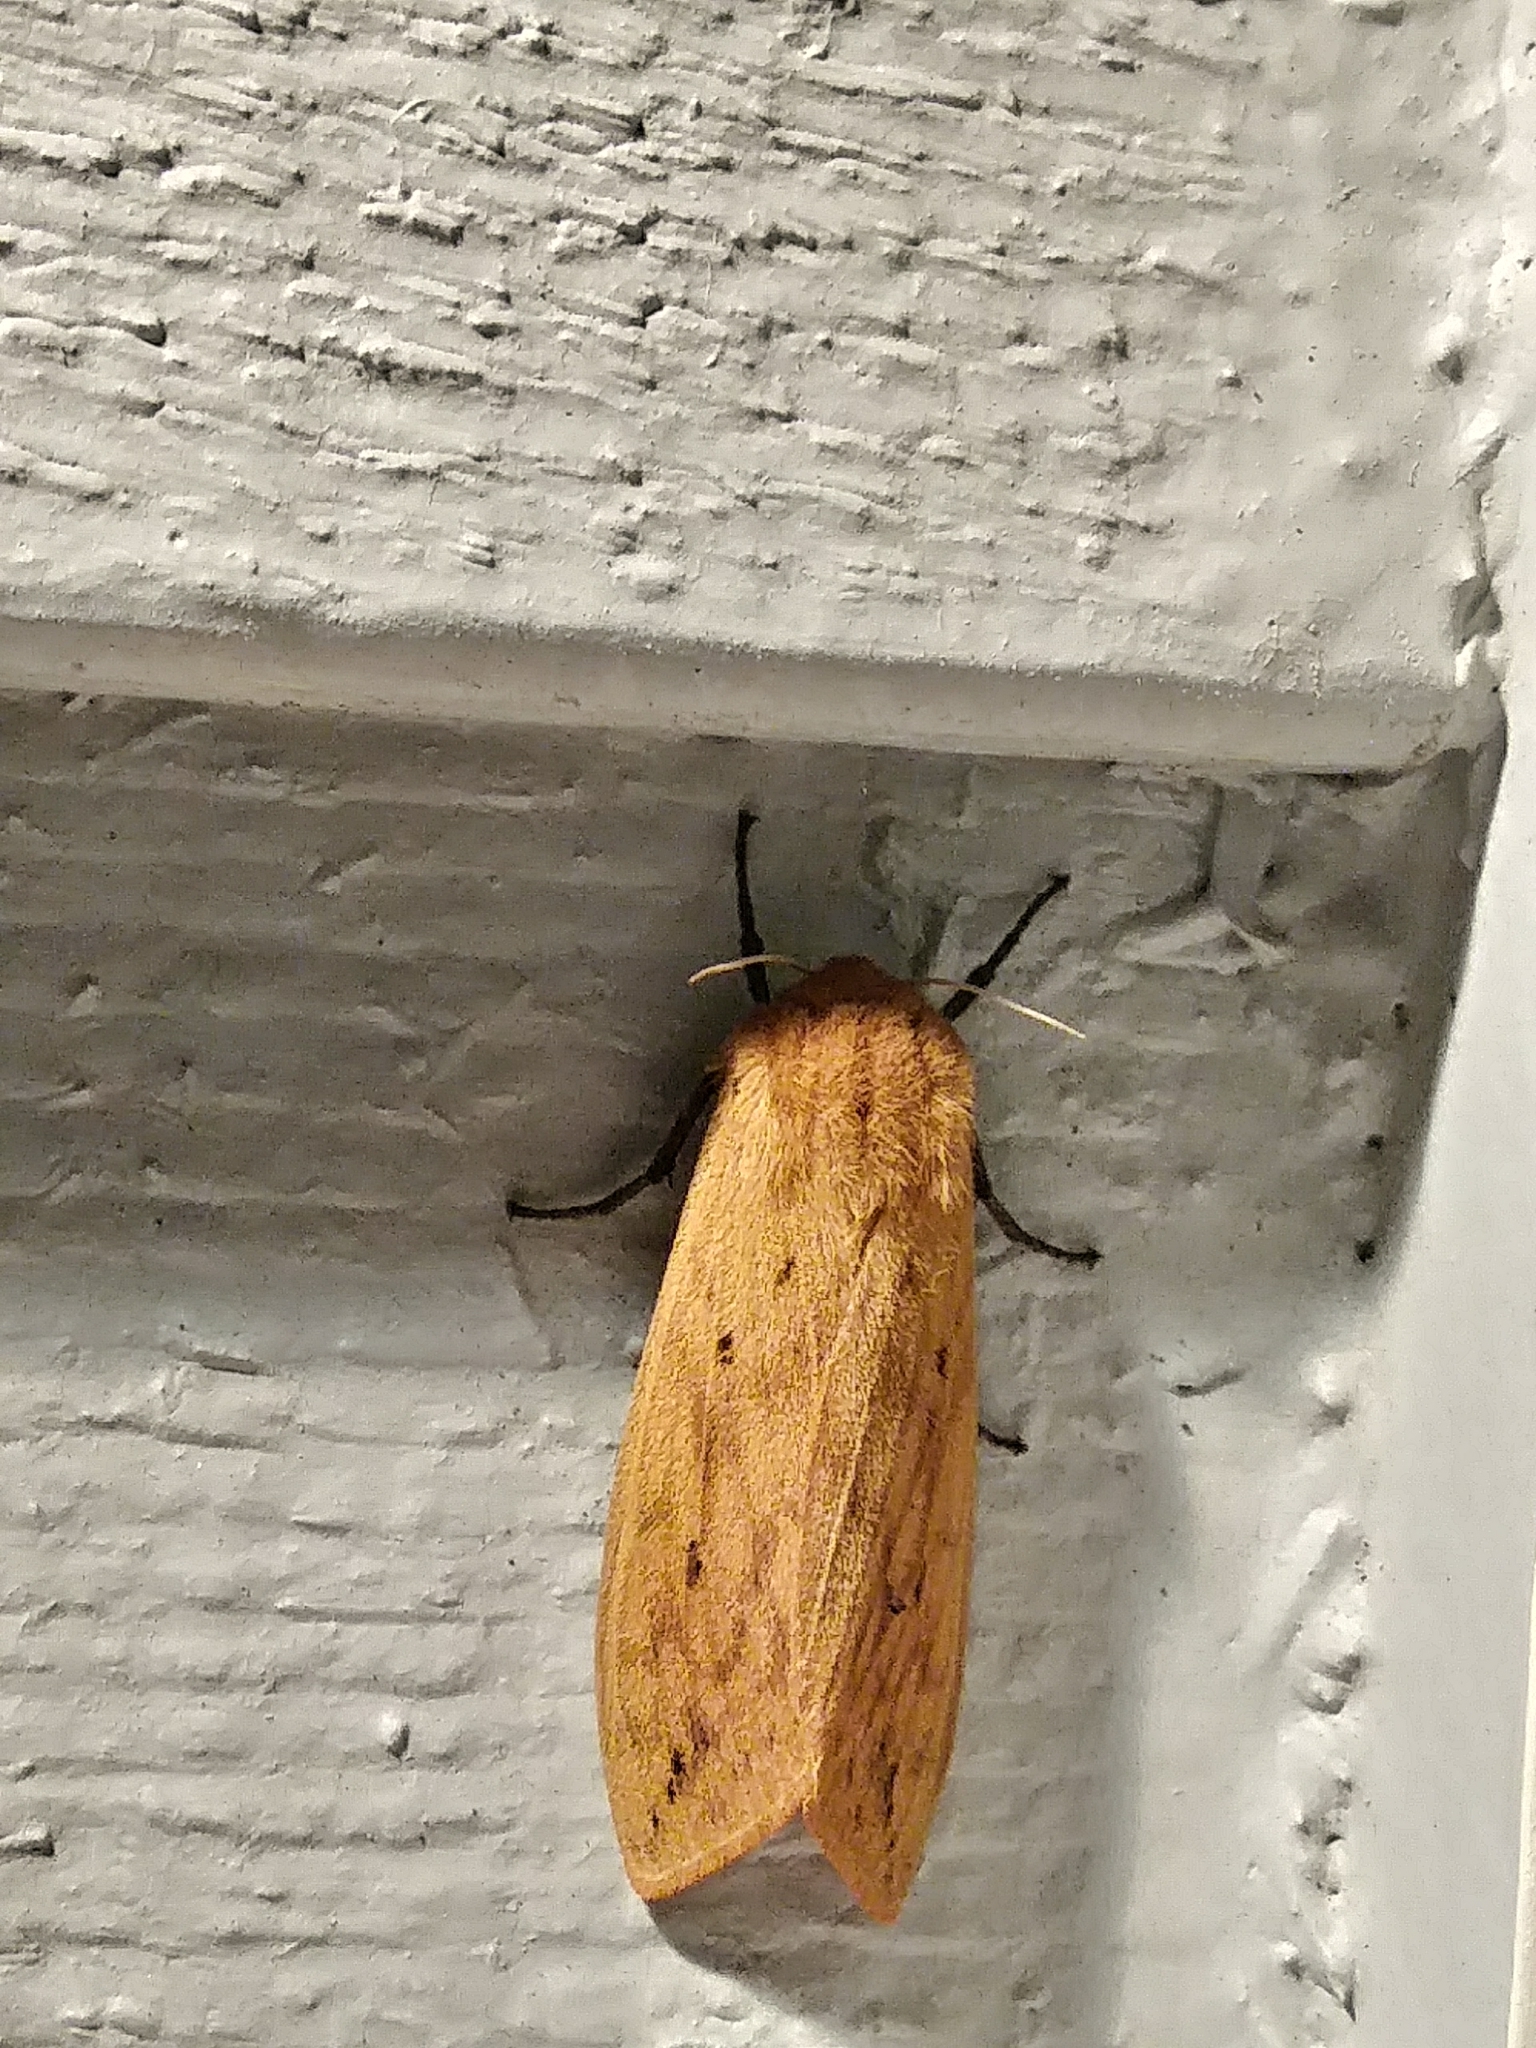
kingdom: Animalia
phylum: Arthropoda
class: Insecta
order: Lepidoptera
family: Erebidae
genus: Pyrrharctia
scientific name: Pyrrharctia isabella
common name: Isabella tiger moth
